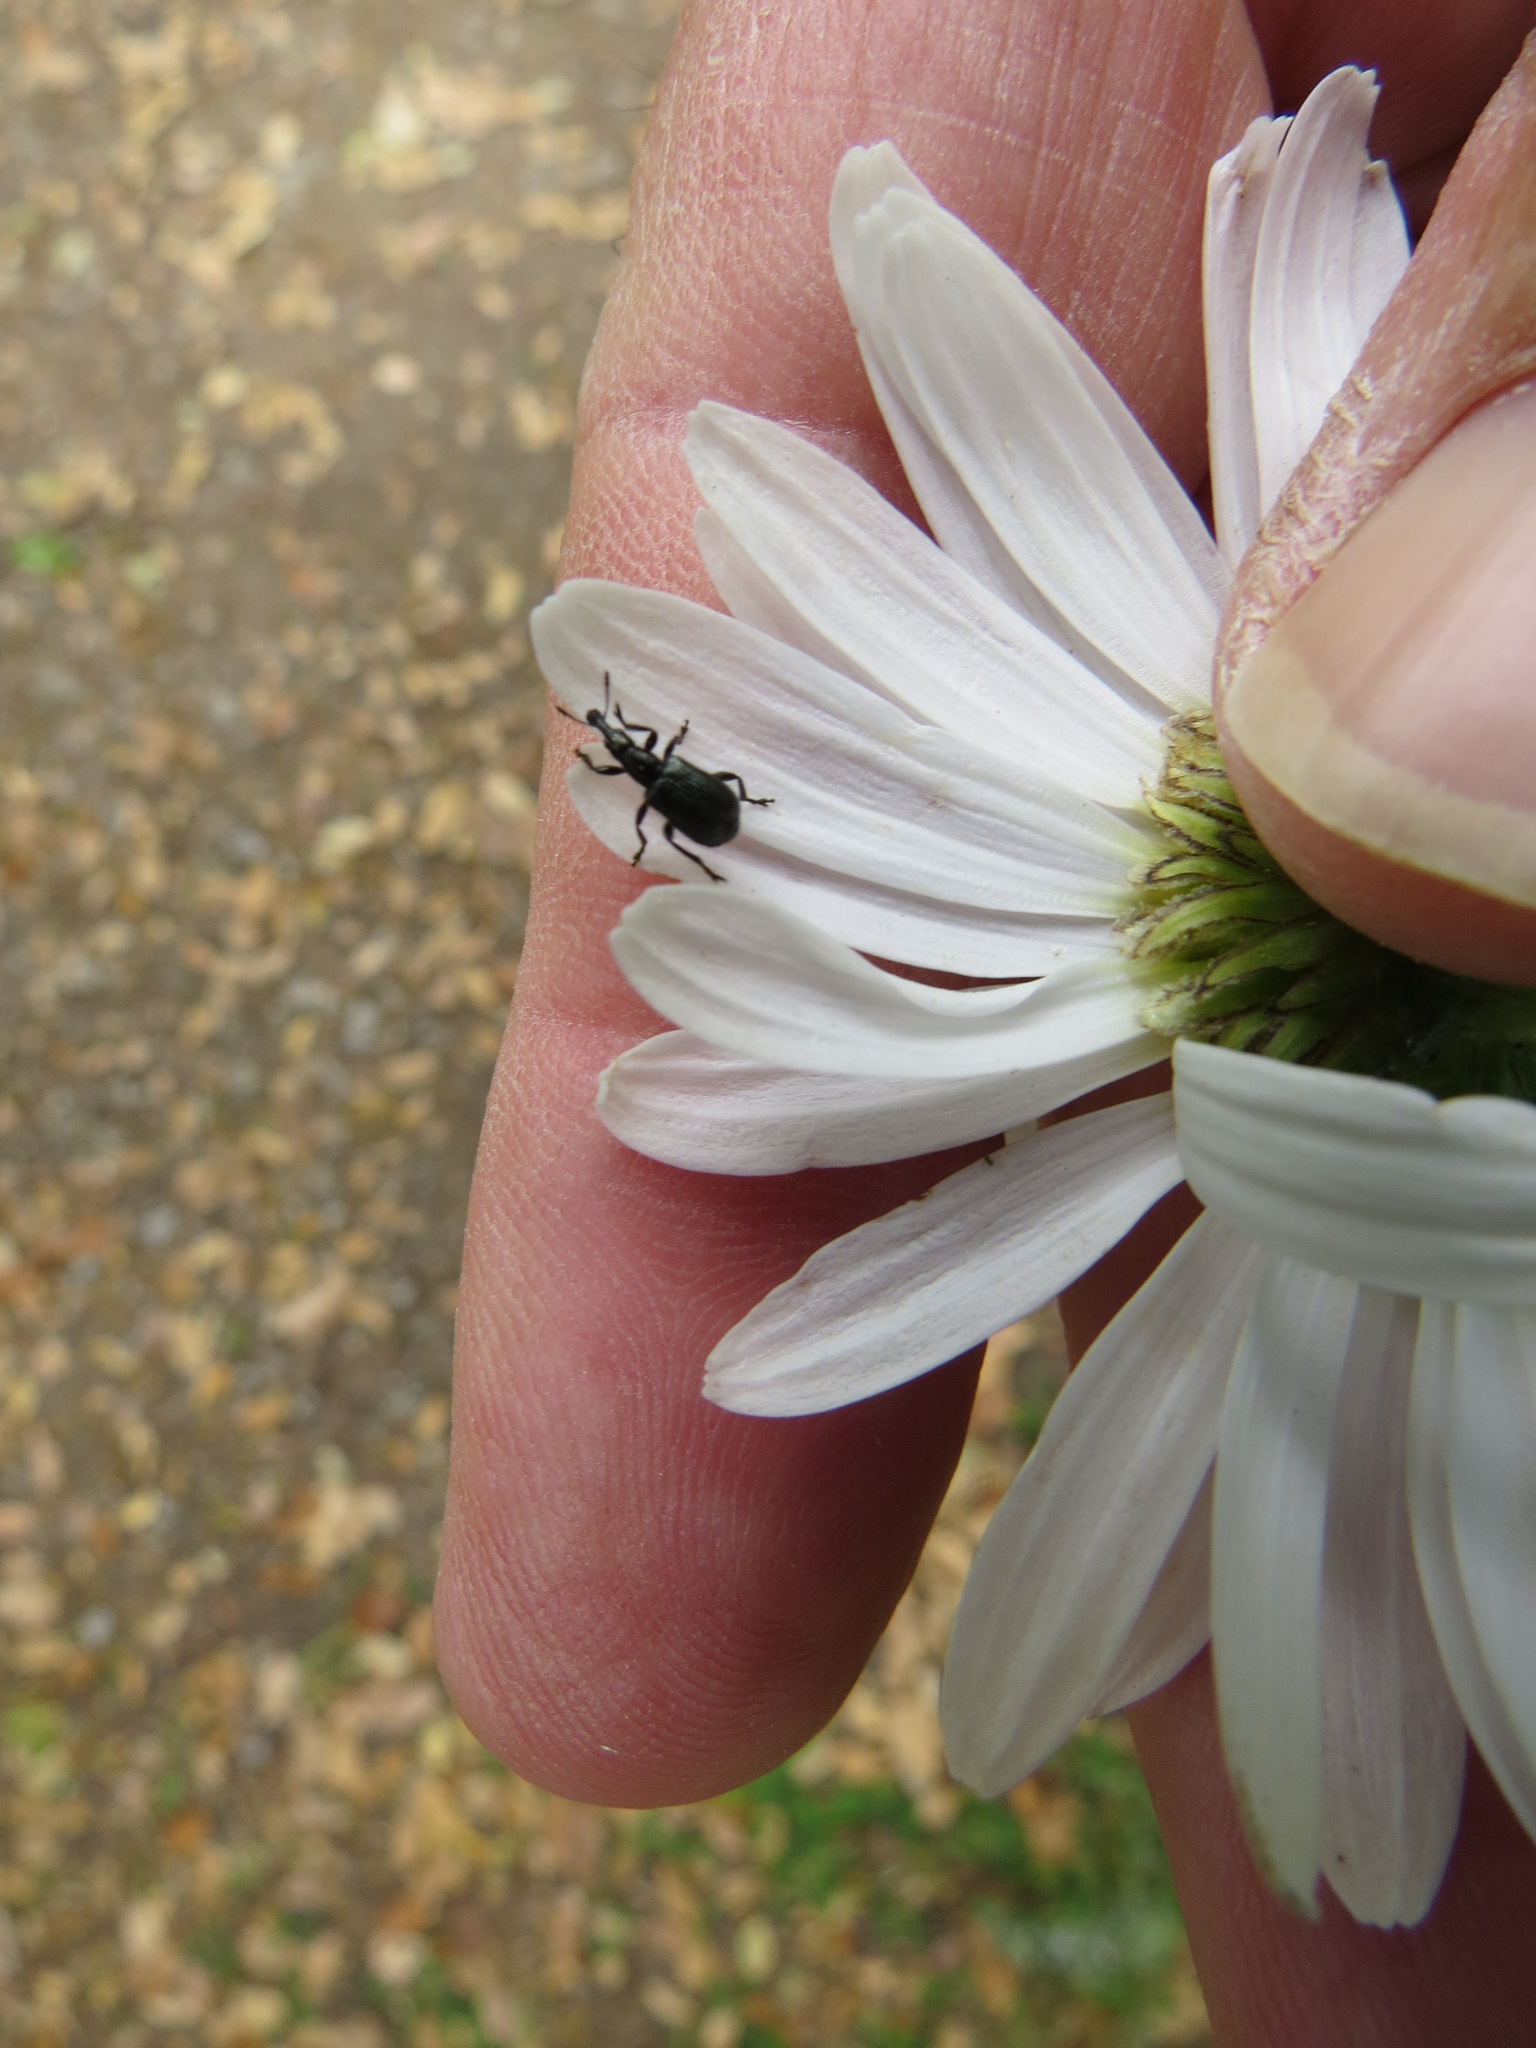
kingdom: Animalia
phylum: Arthropoda
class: Insecta
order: Coleoptera
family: Attelabidae
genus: Deporaus
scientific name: Deporaus glastinus
